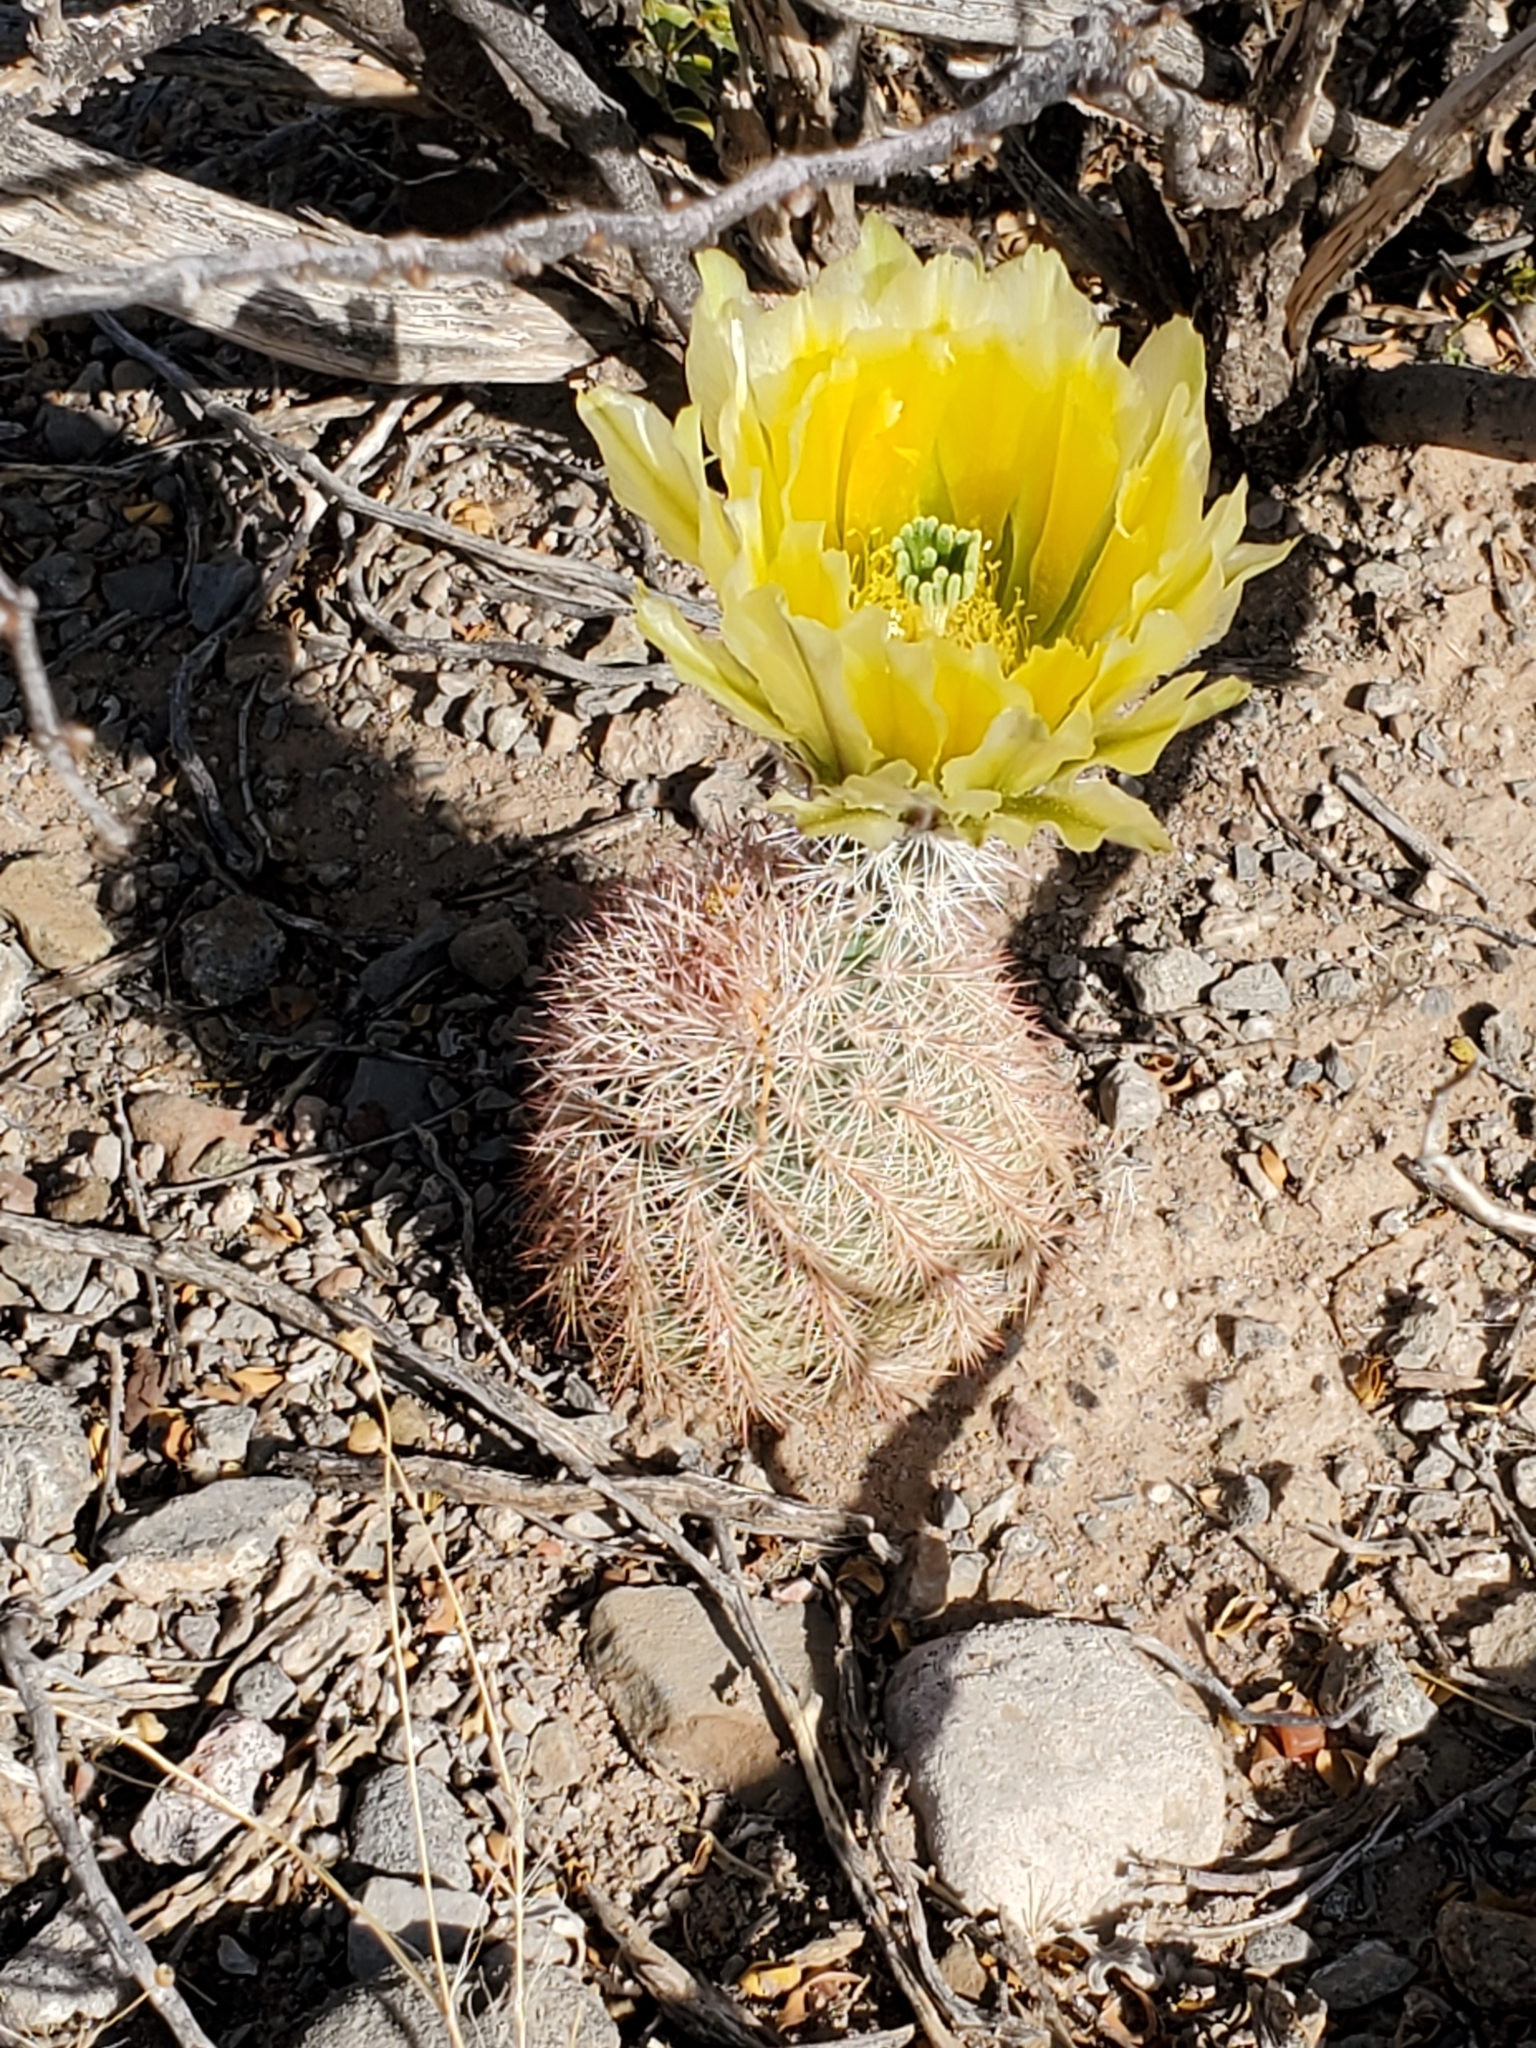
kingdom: Plantae
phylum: Tracheophyta
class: Magnoliopsida
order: Caryophyllales
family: Cactaceae
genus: Echinocereus
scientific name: Echinocereus dasyacanthus
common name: Spiny hedgehog cactus
